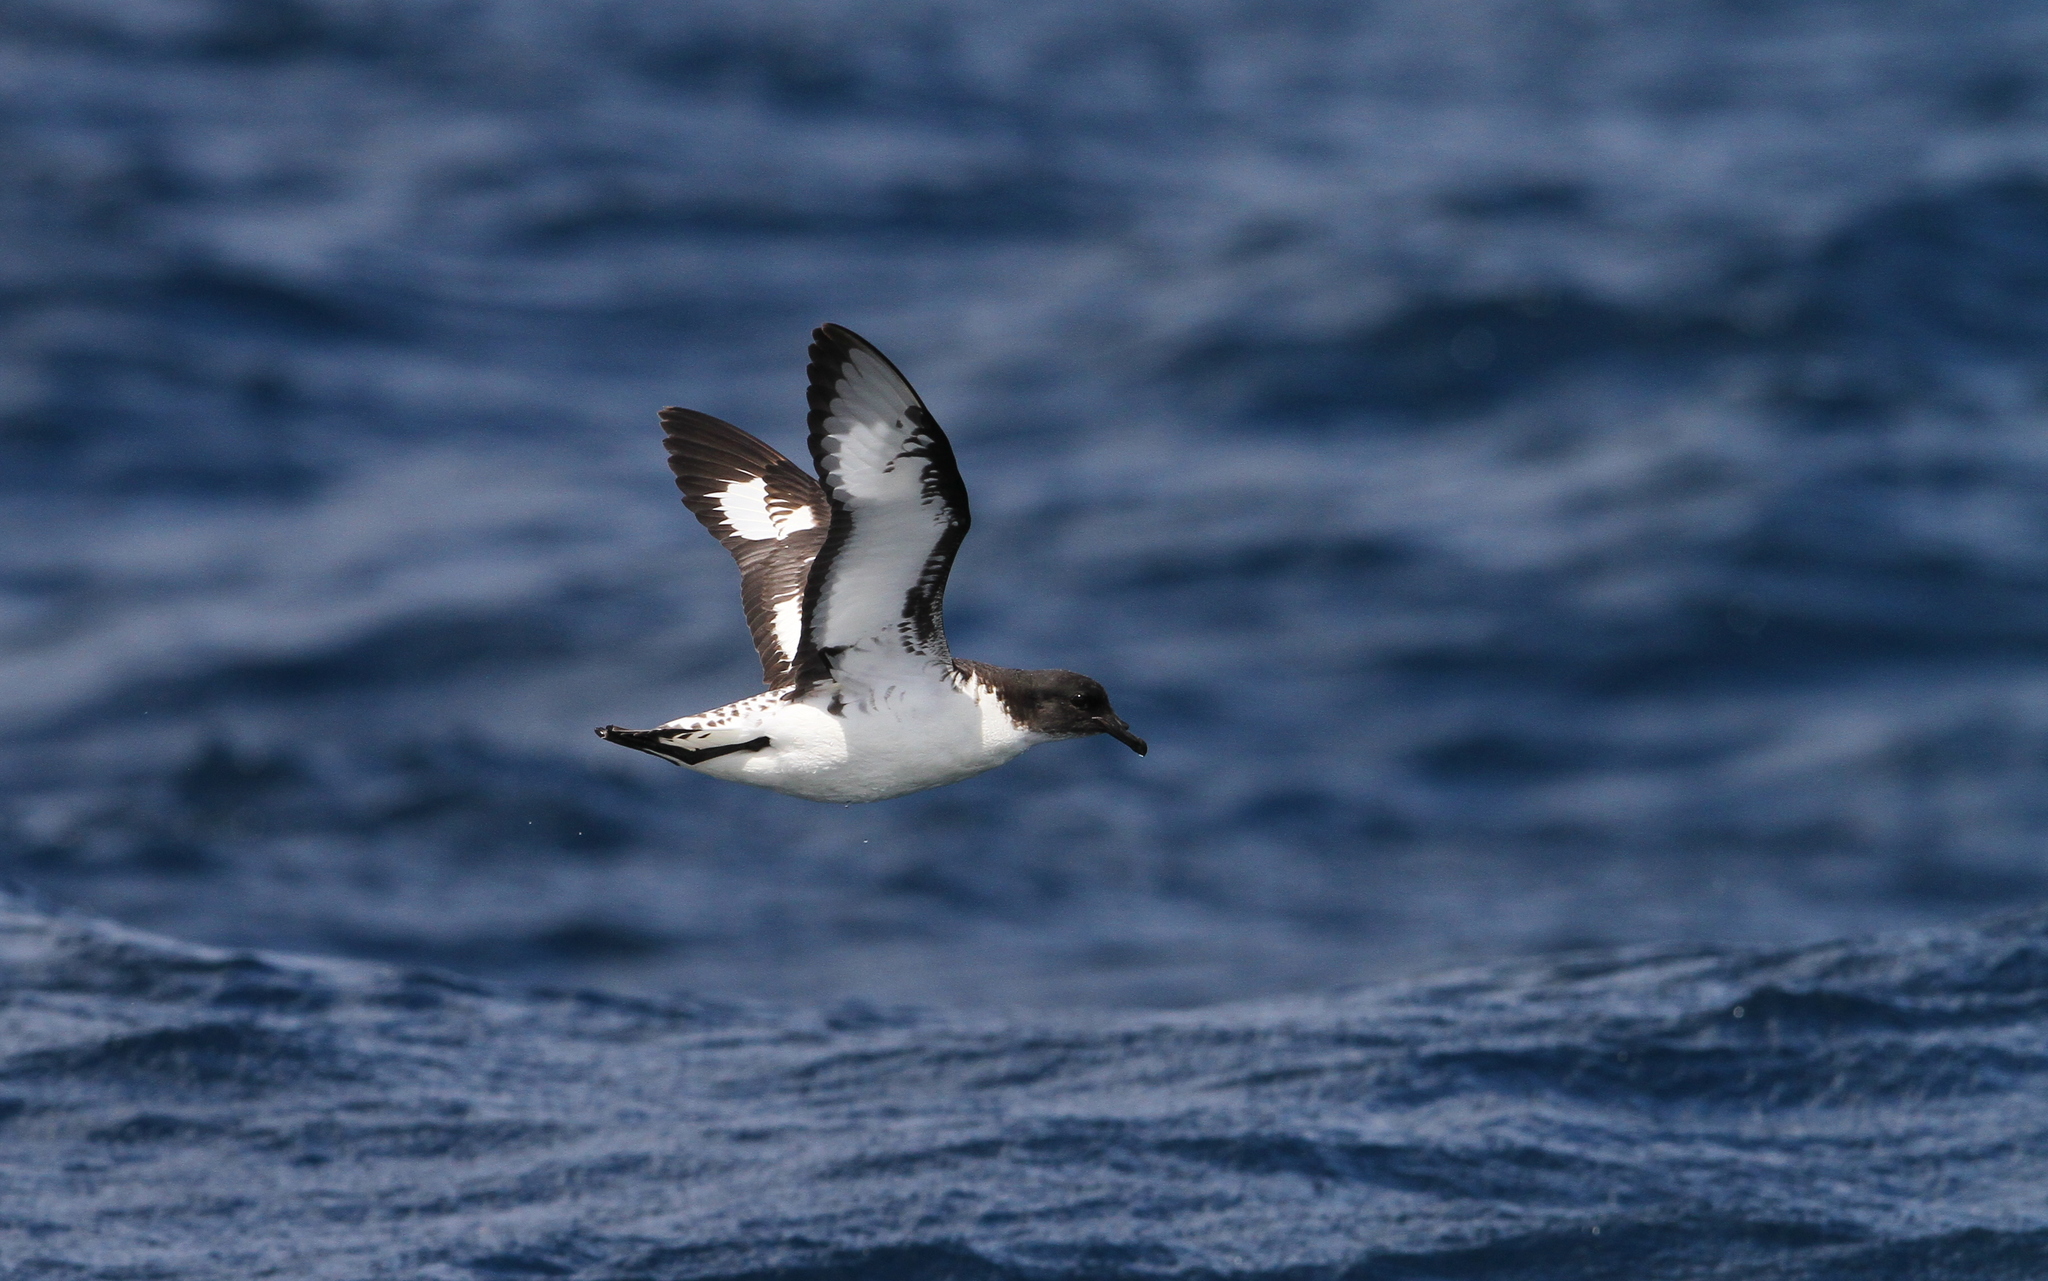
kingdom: Animalia
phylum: Chordata
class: Aves
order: Procellariiformes
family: Procellariidae
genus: Daption
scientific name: Daption capense
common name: Cape petrel
